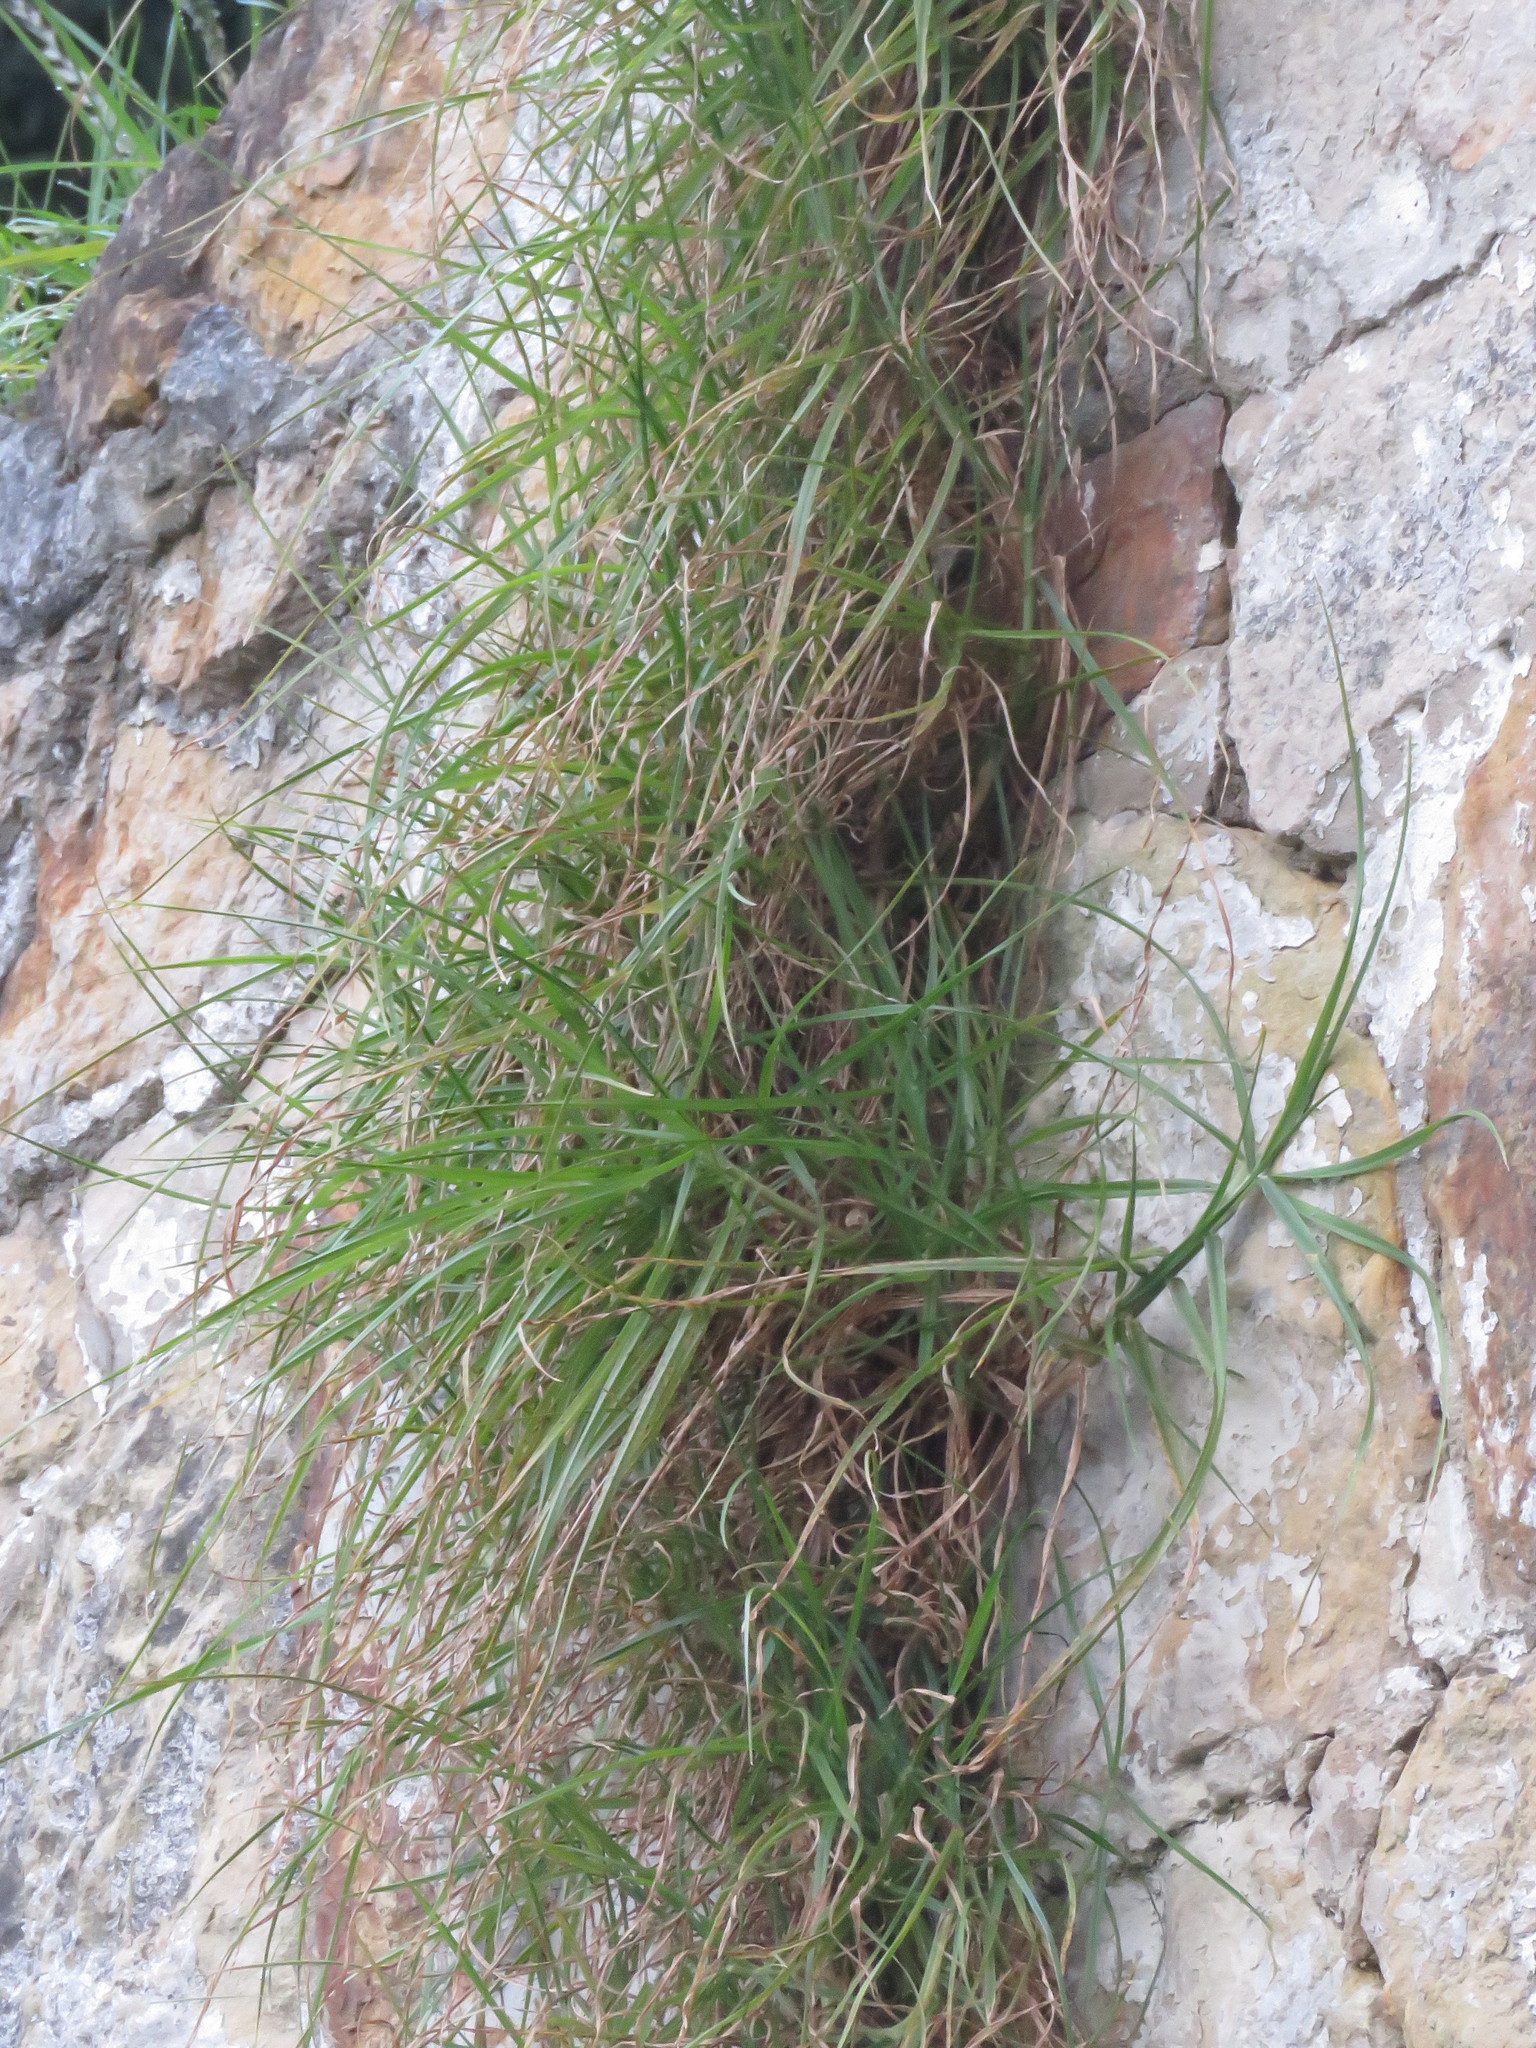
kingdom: Plantae
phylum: Tracheophyta
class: Liliopsida
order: Poales
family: Poaceae
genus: Cenchrus
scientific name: Cenchrus clandestinus
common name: Kikuyugrass
